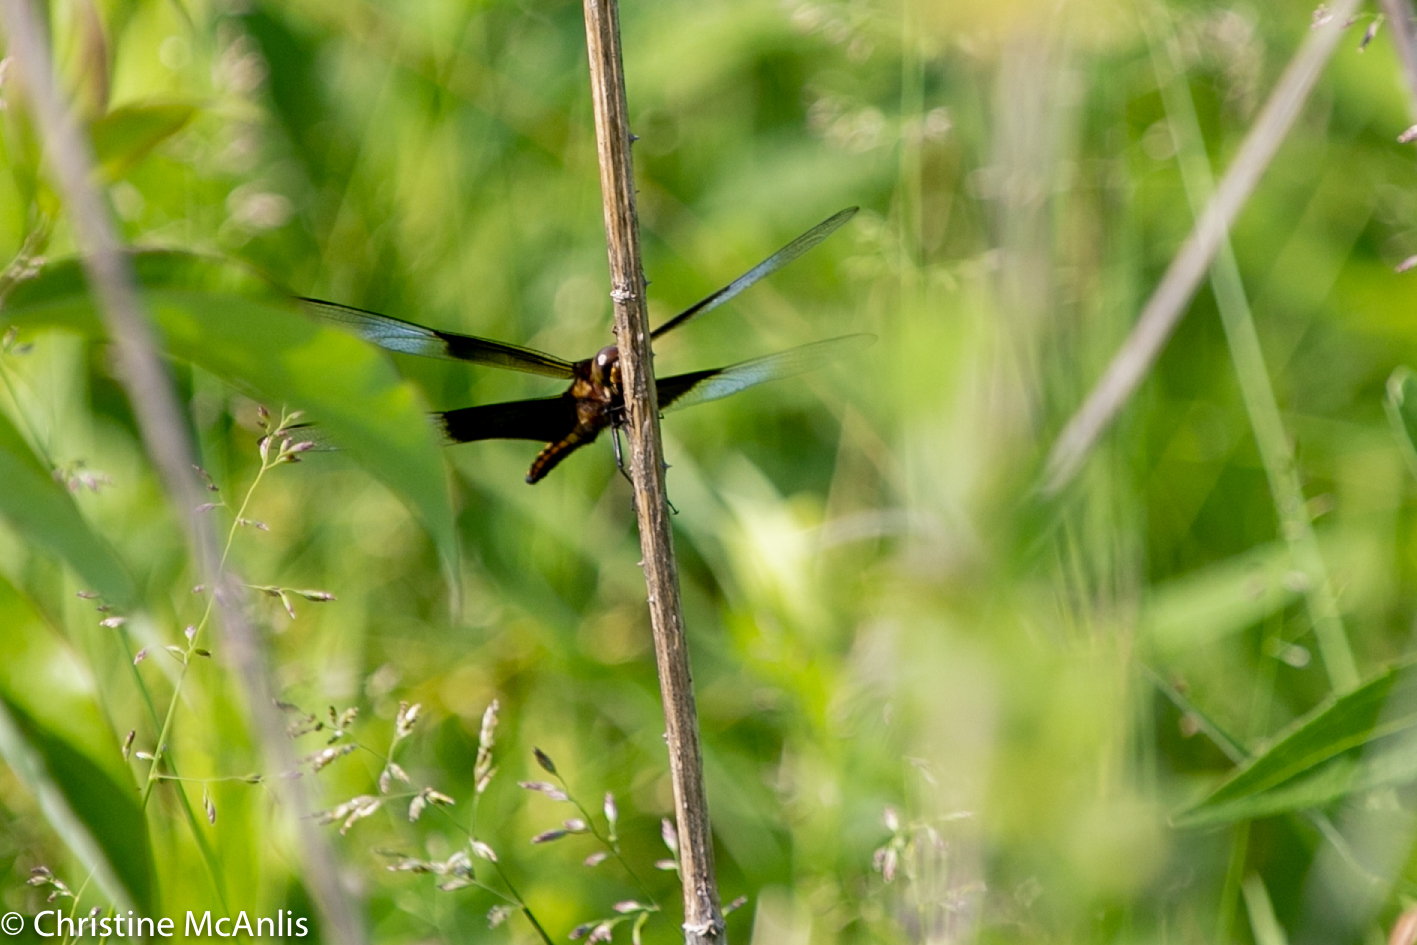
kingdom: Animalia
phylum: Arthropoda
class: Insecta
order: Odonata
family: Libellulidae
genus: Libellula
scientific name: Libellula luctuosa
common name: Widow skimmer
